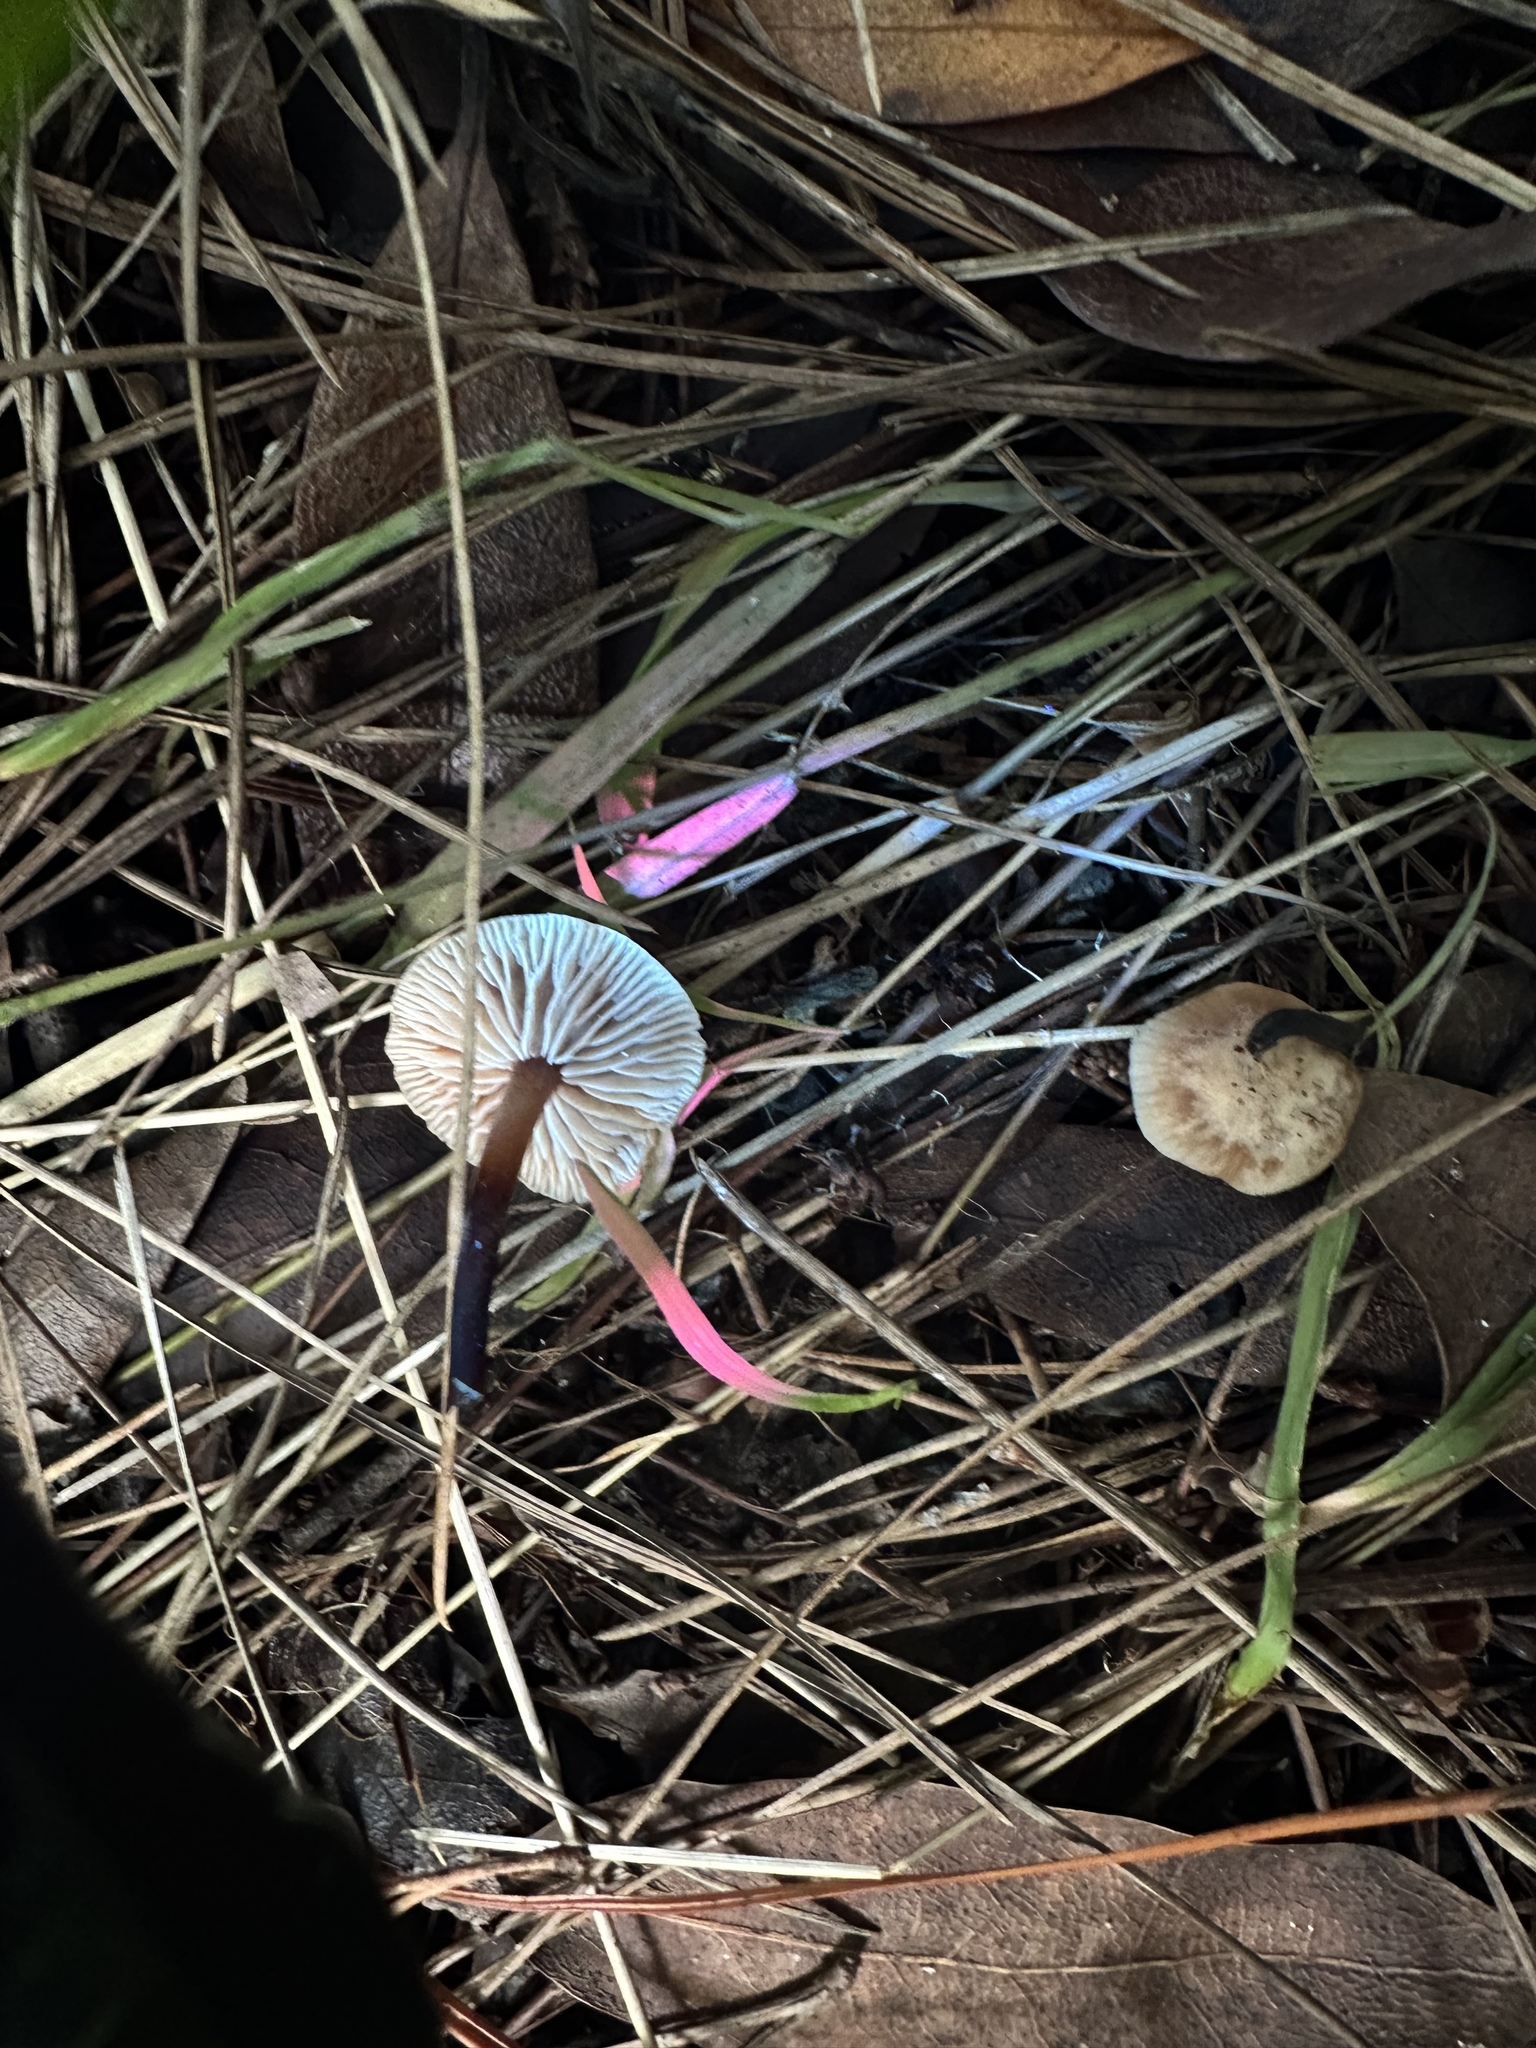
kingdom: Fungi
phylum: Basidiomycota
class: Agaricomycetes
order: Agaricales
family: Omphalotaceae
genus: Gymnopus
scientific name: Gymnopus brassicolens
